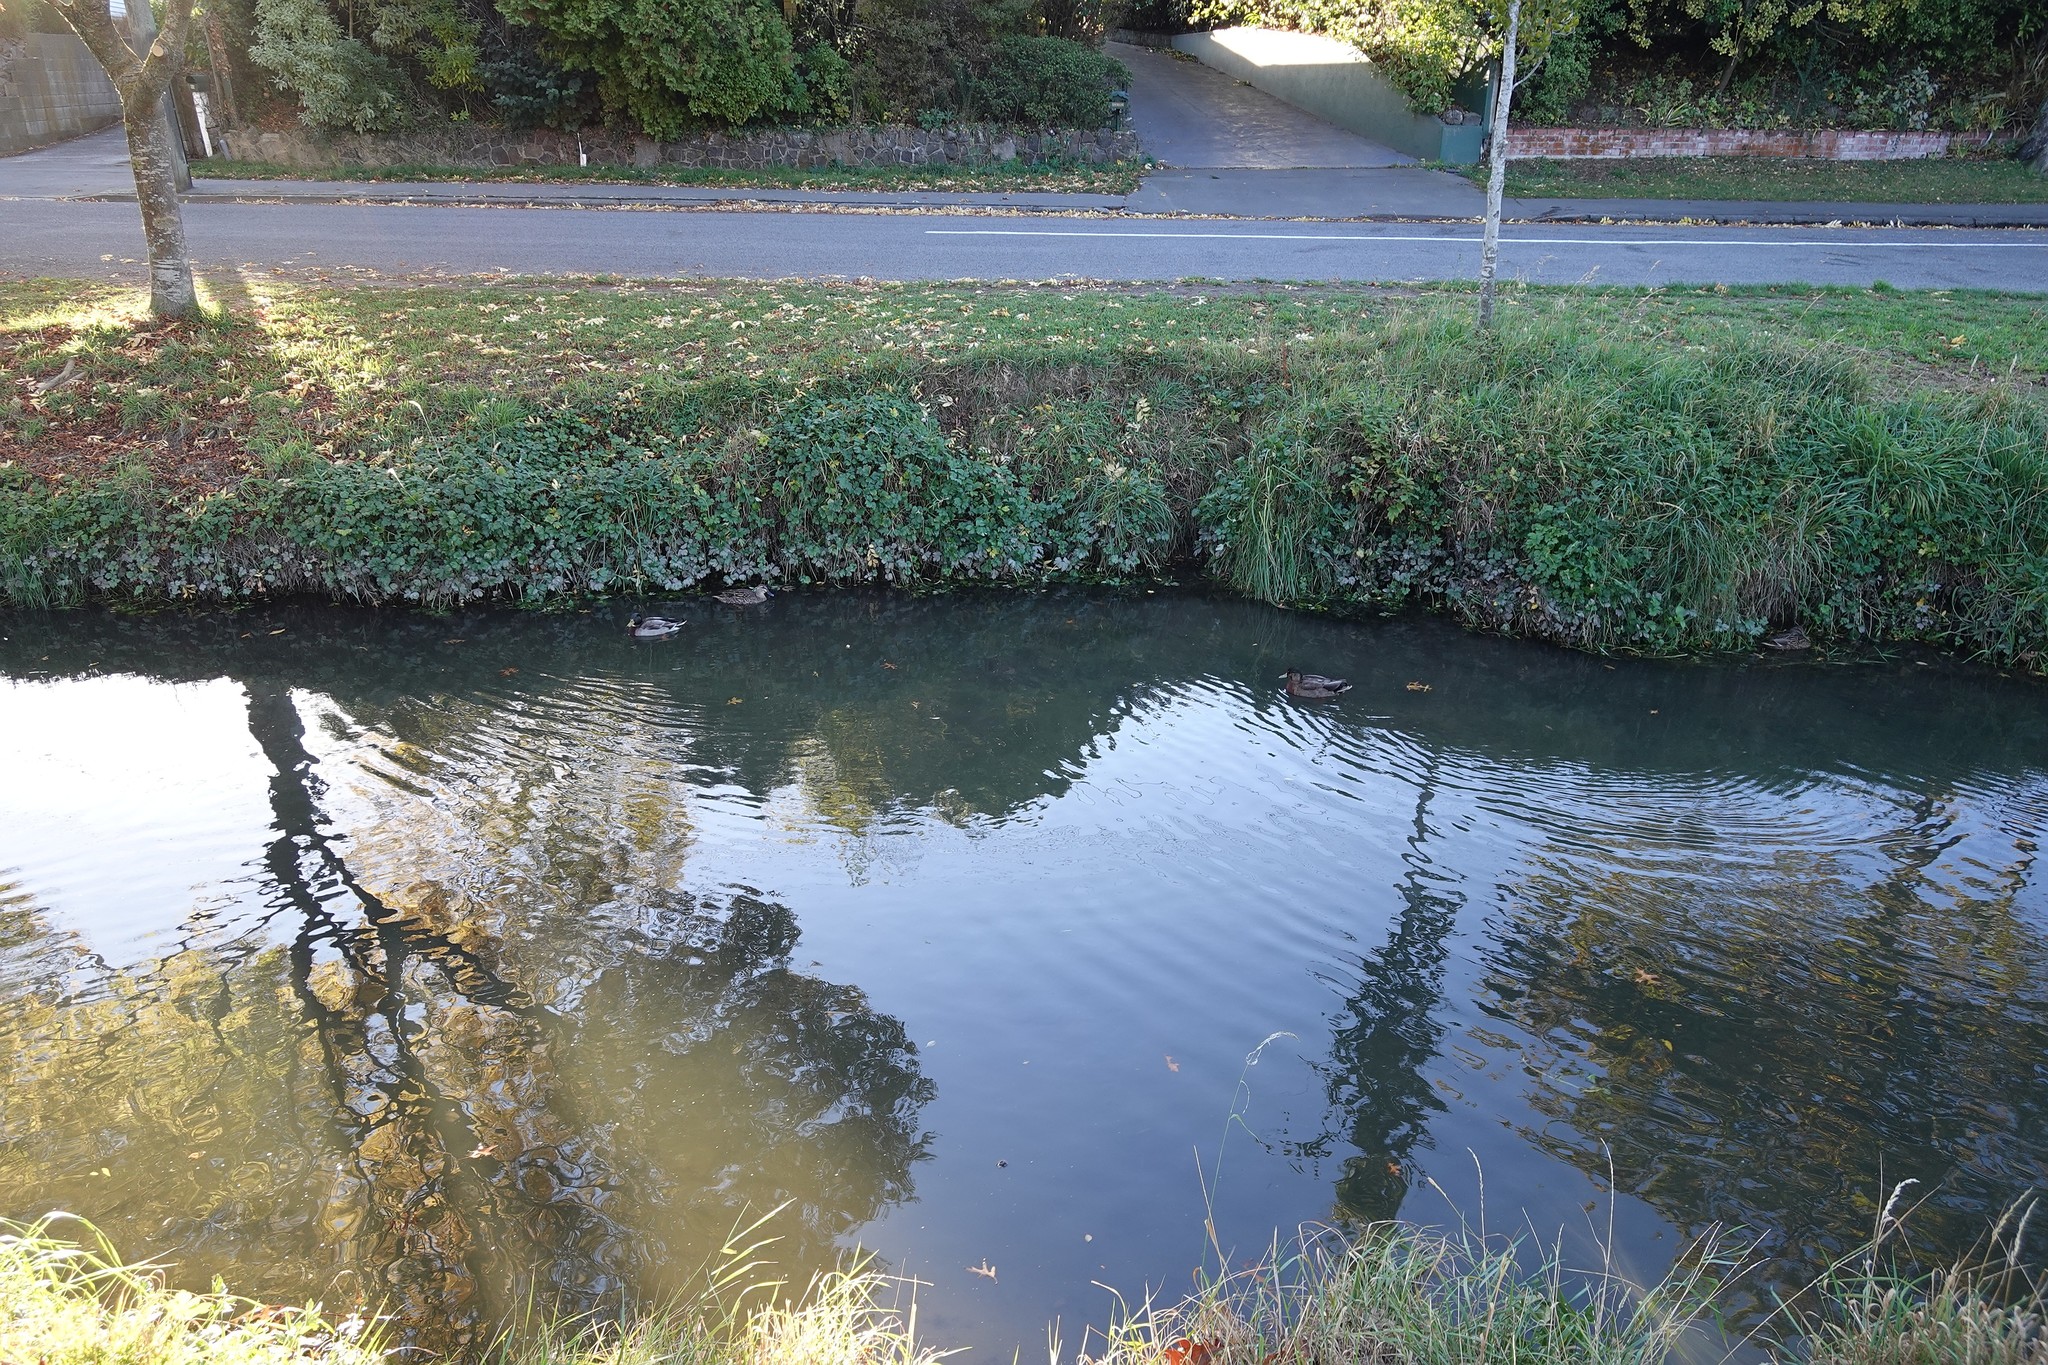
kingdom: Animalia
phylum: Chordata
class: Aves
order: Anseriformes
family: Anatidae
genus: Anas
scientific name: Anas platyrhynchos
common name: Mallard
